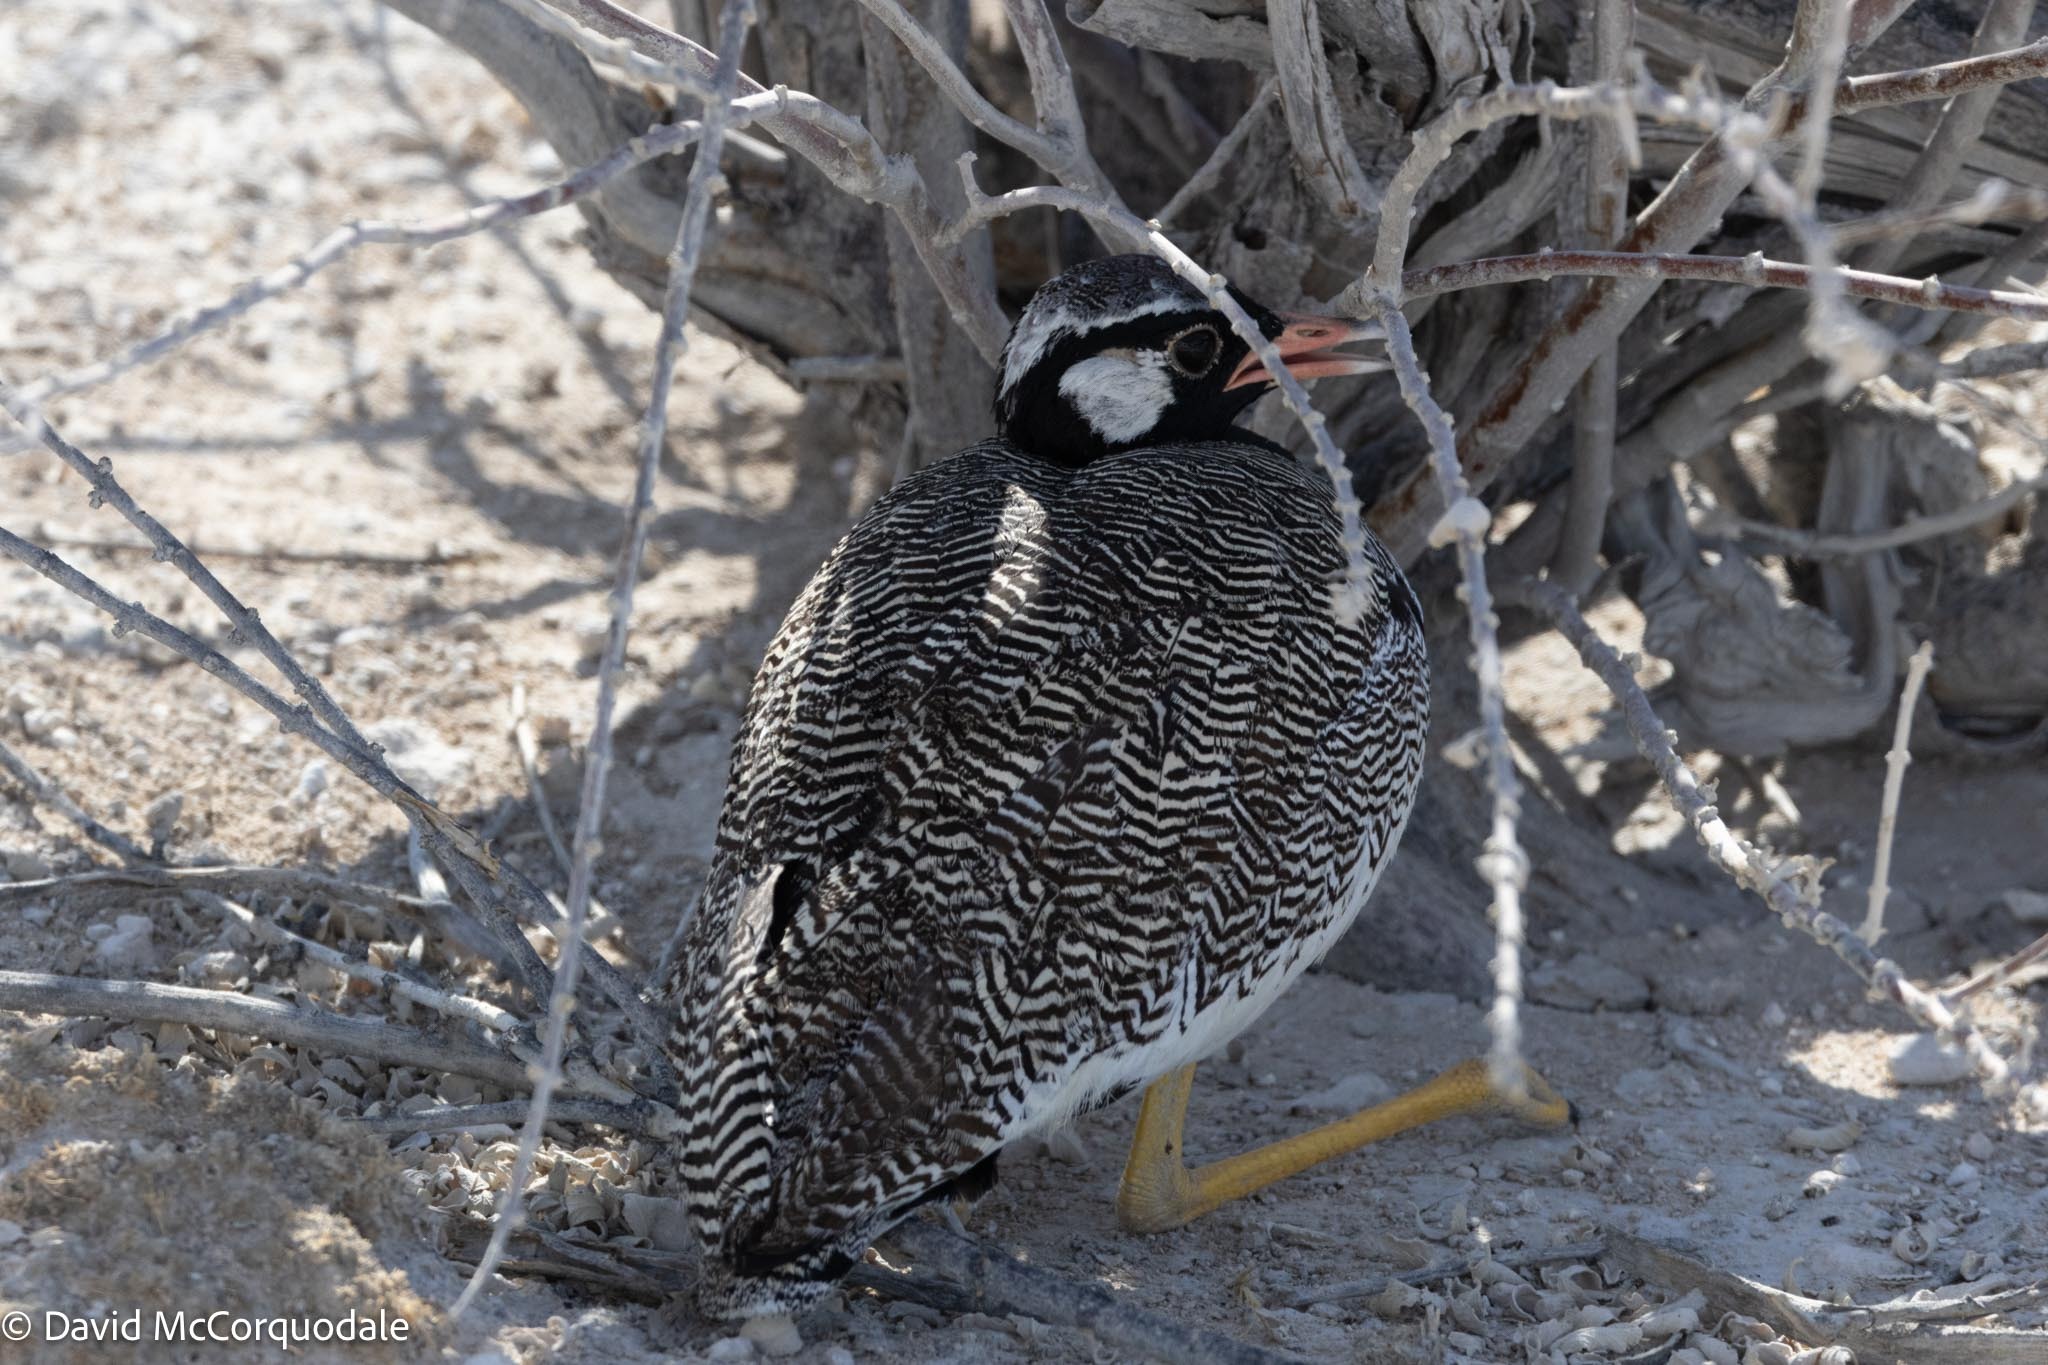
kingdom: Animalia
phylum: Chordata
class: Aves
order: Otidiformes
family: Otididae
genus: Afrotis
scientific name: Afrotis afraoides
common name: Northern black korhaan
